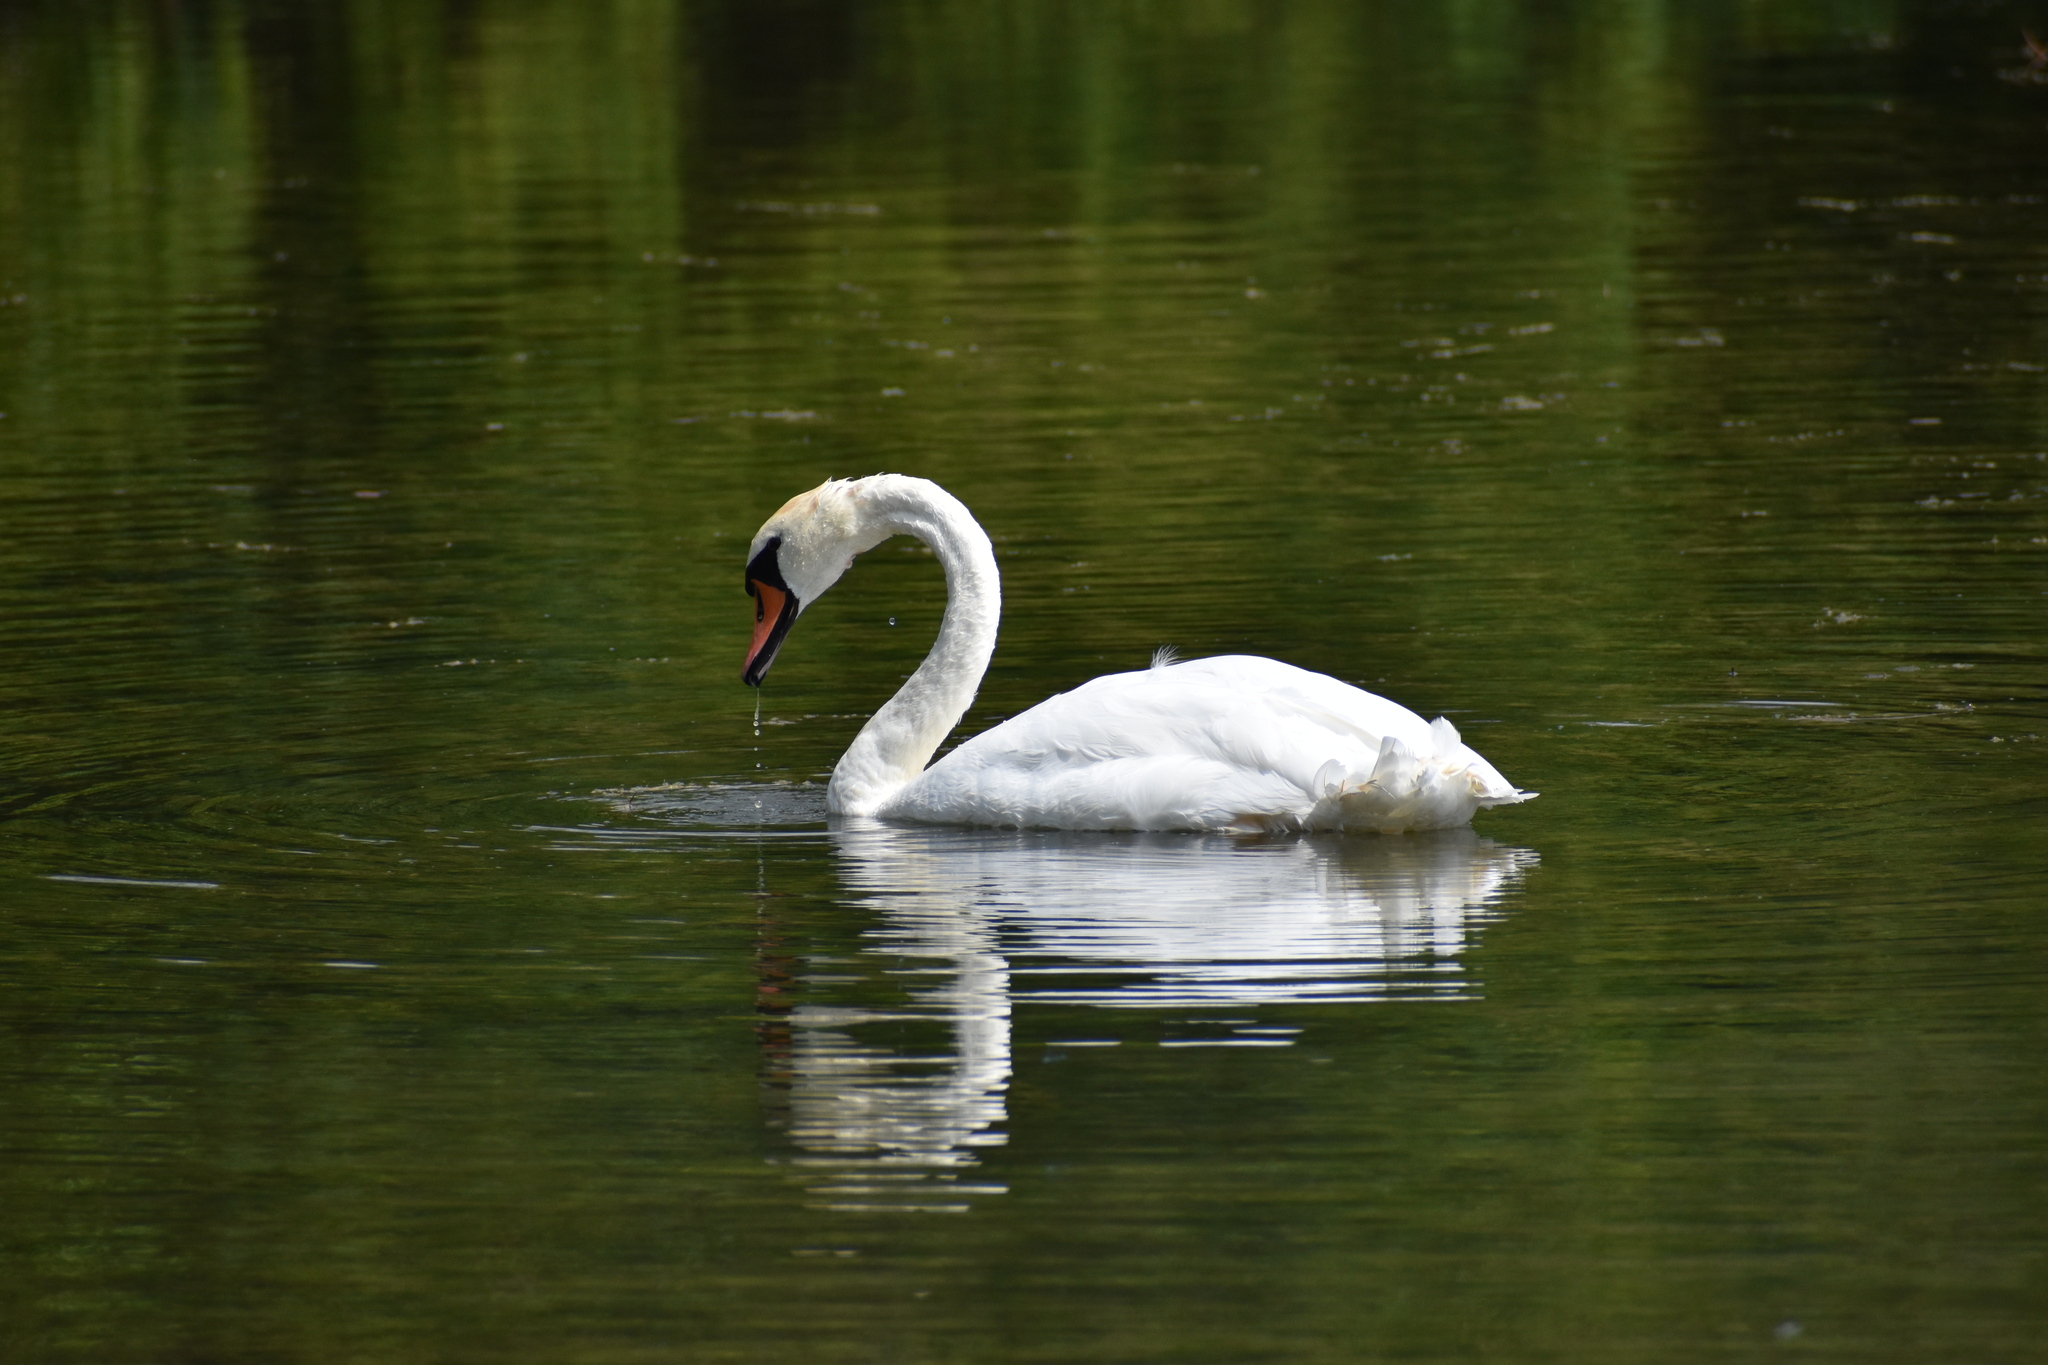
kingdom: Animalia
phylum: Chordata
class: Aves
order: Anseriformes
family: Anatidae
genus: Cygnus
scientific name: Cygnus olor
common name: Mute swan
